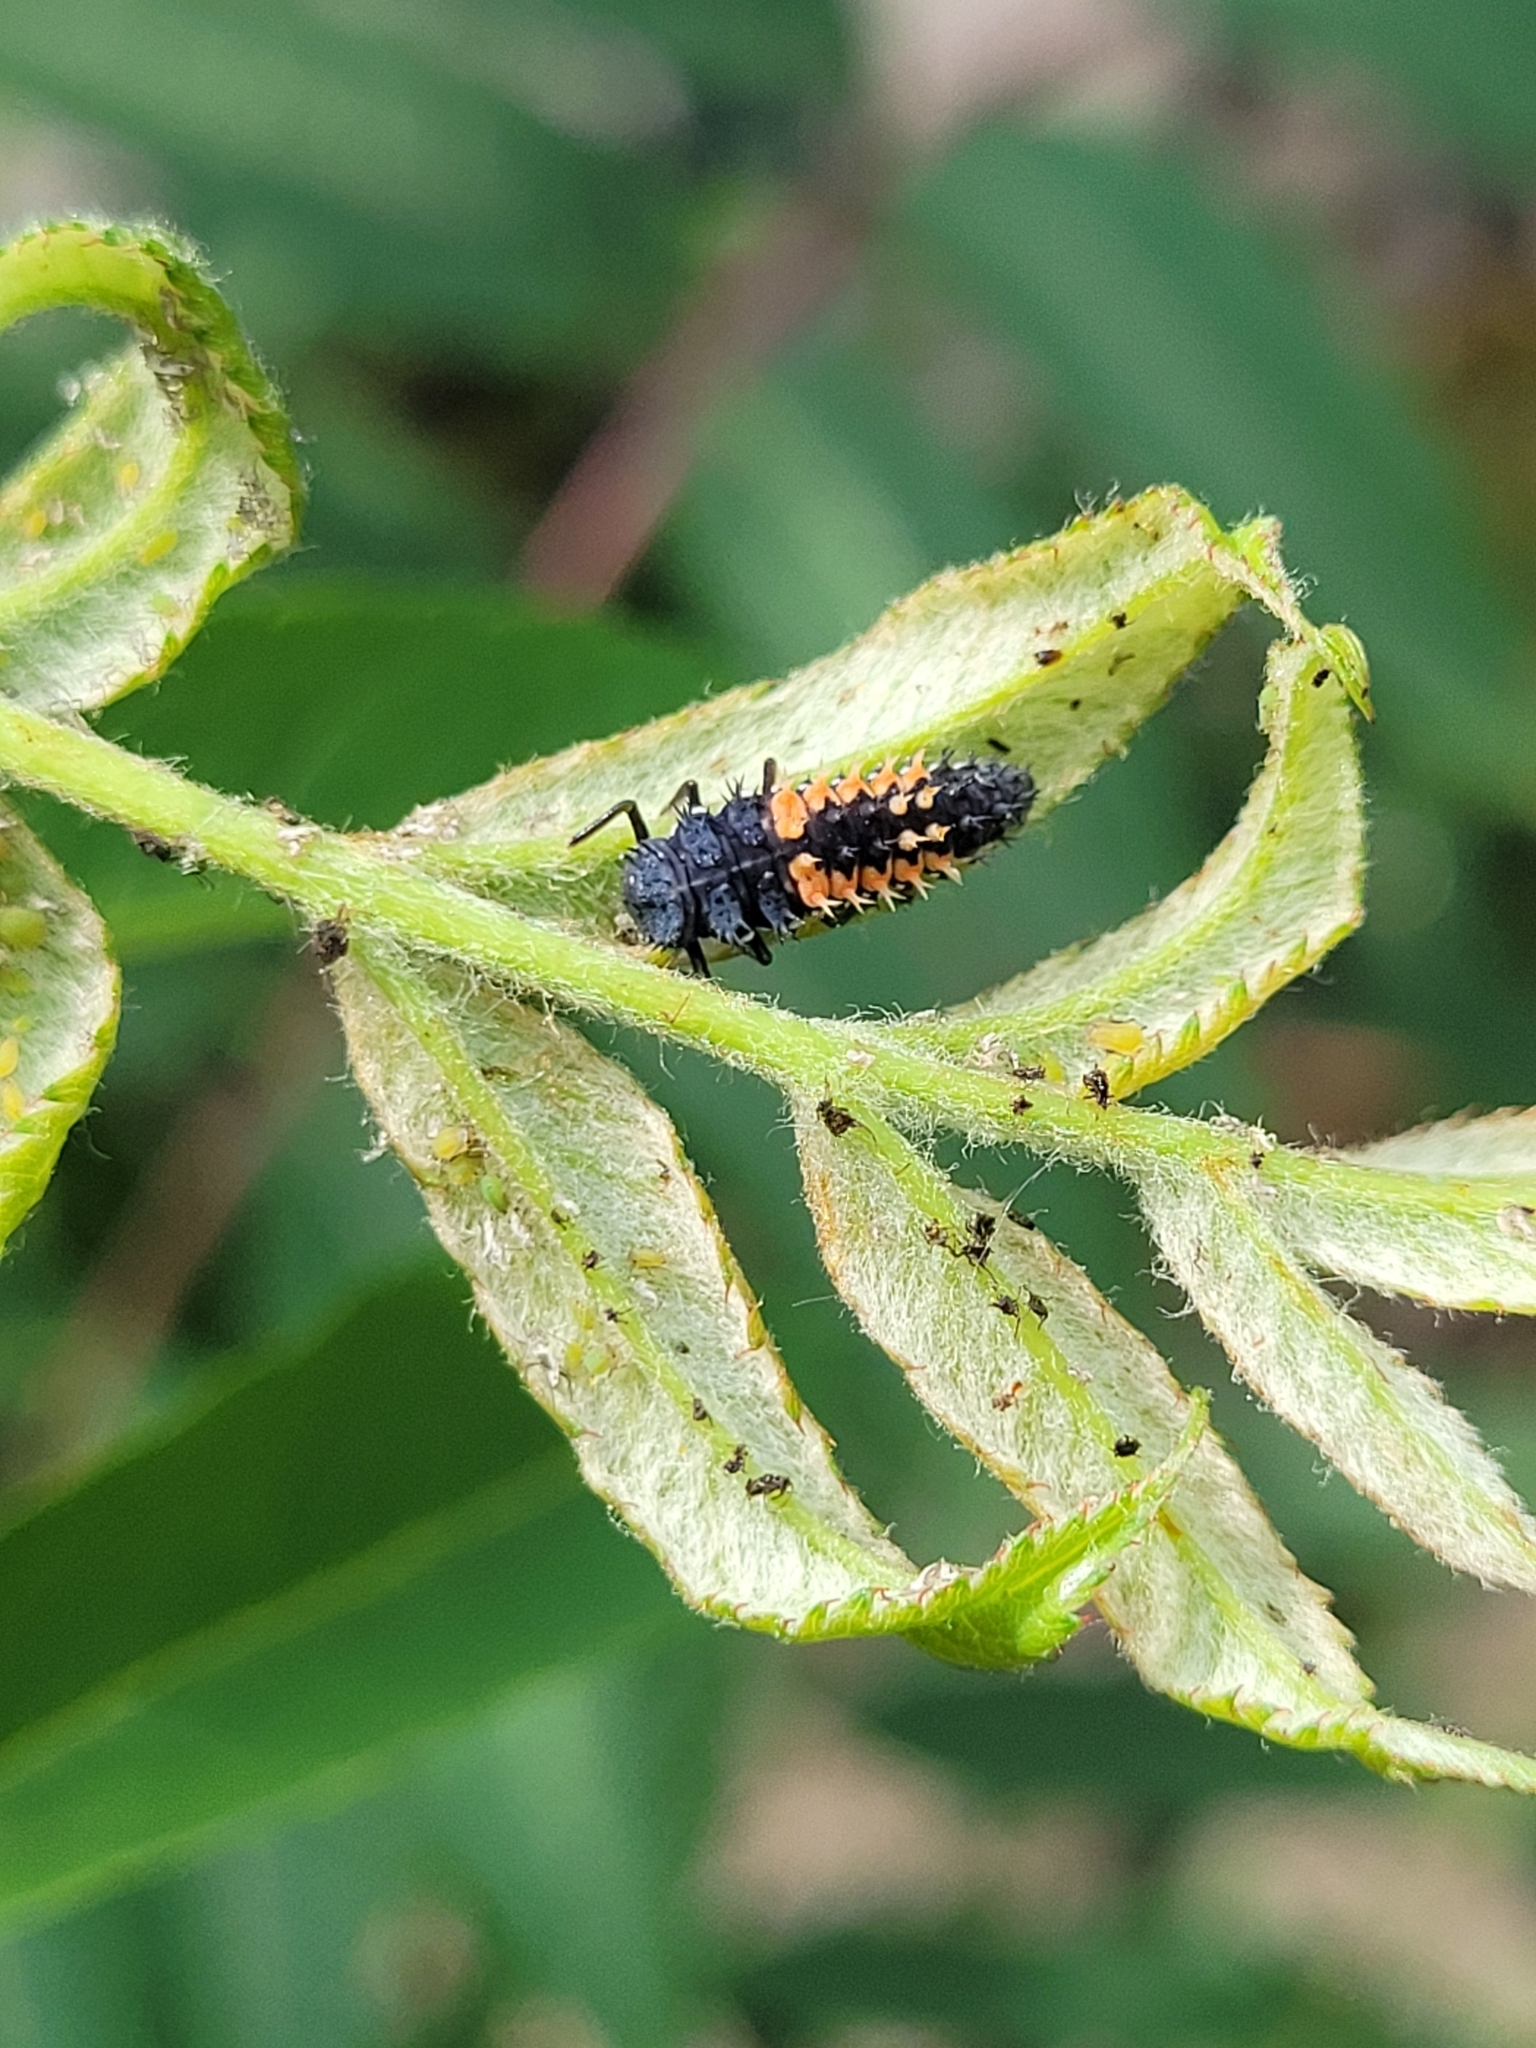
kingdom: Animalia
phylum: Arthropoda
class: Insecta
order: Coleoptera
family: Coccinellidae
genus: Harmonia
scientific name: Harmonia axyridis
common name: Harlequin ladybird
